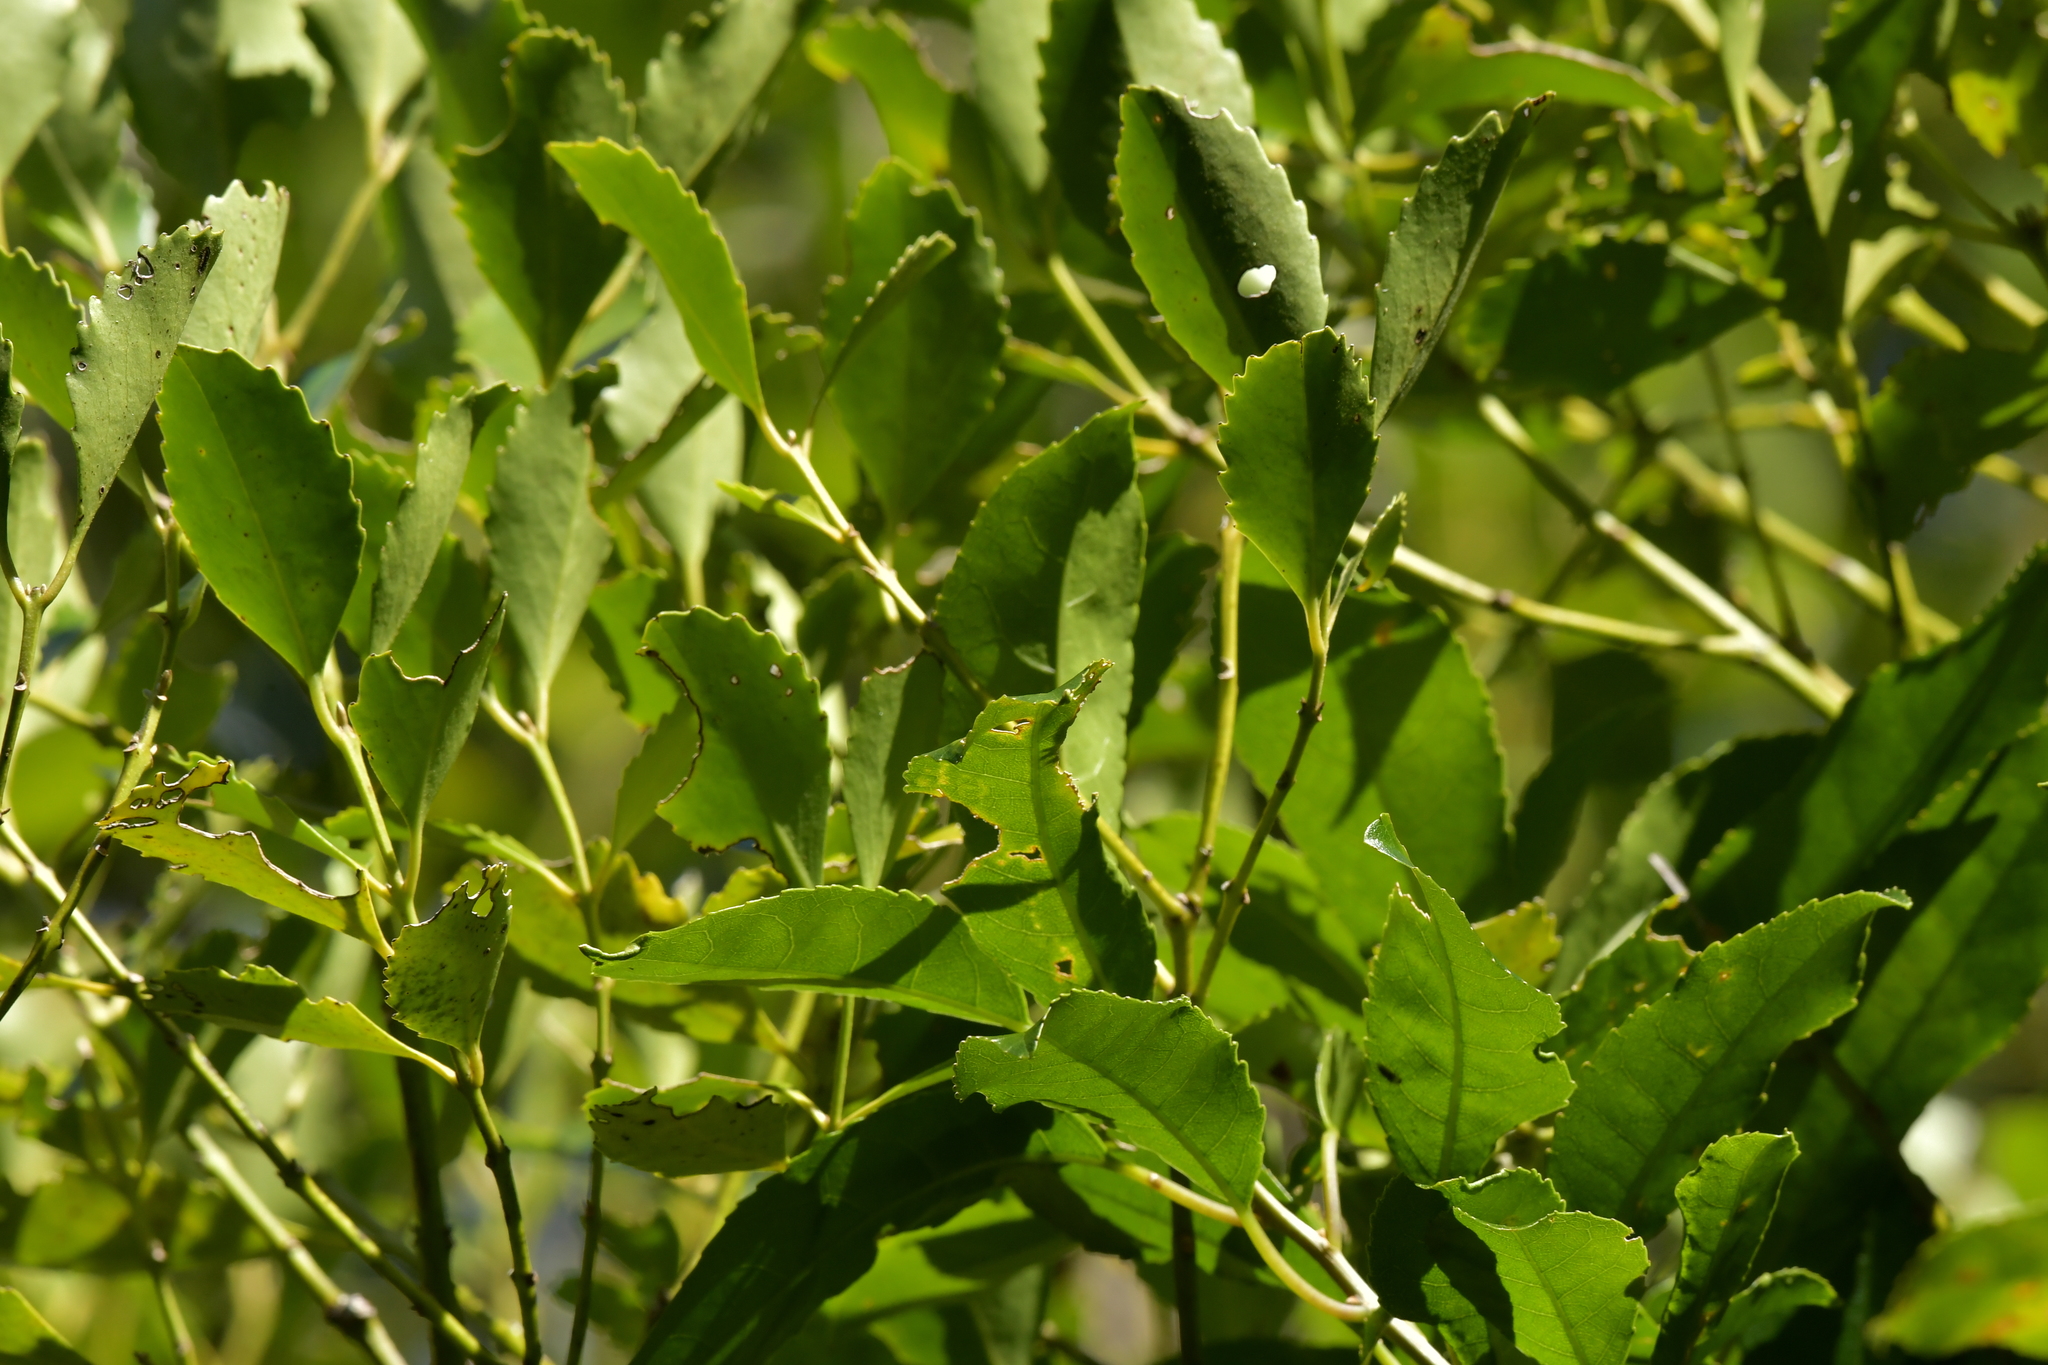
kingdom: Plantae
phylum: Tracheophyta
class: Magnoliopsida
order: Laurales
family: Atherospermataceae
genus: Laurelia
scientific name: Laurelia novae-zelandiae
